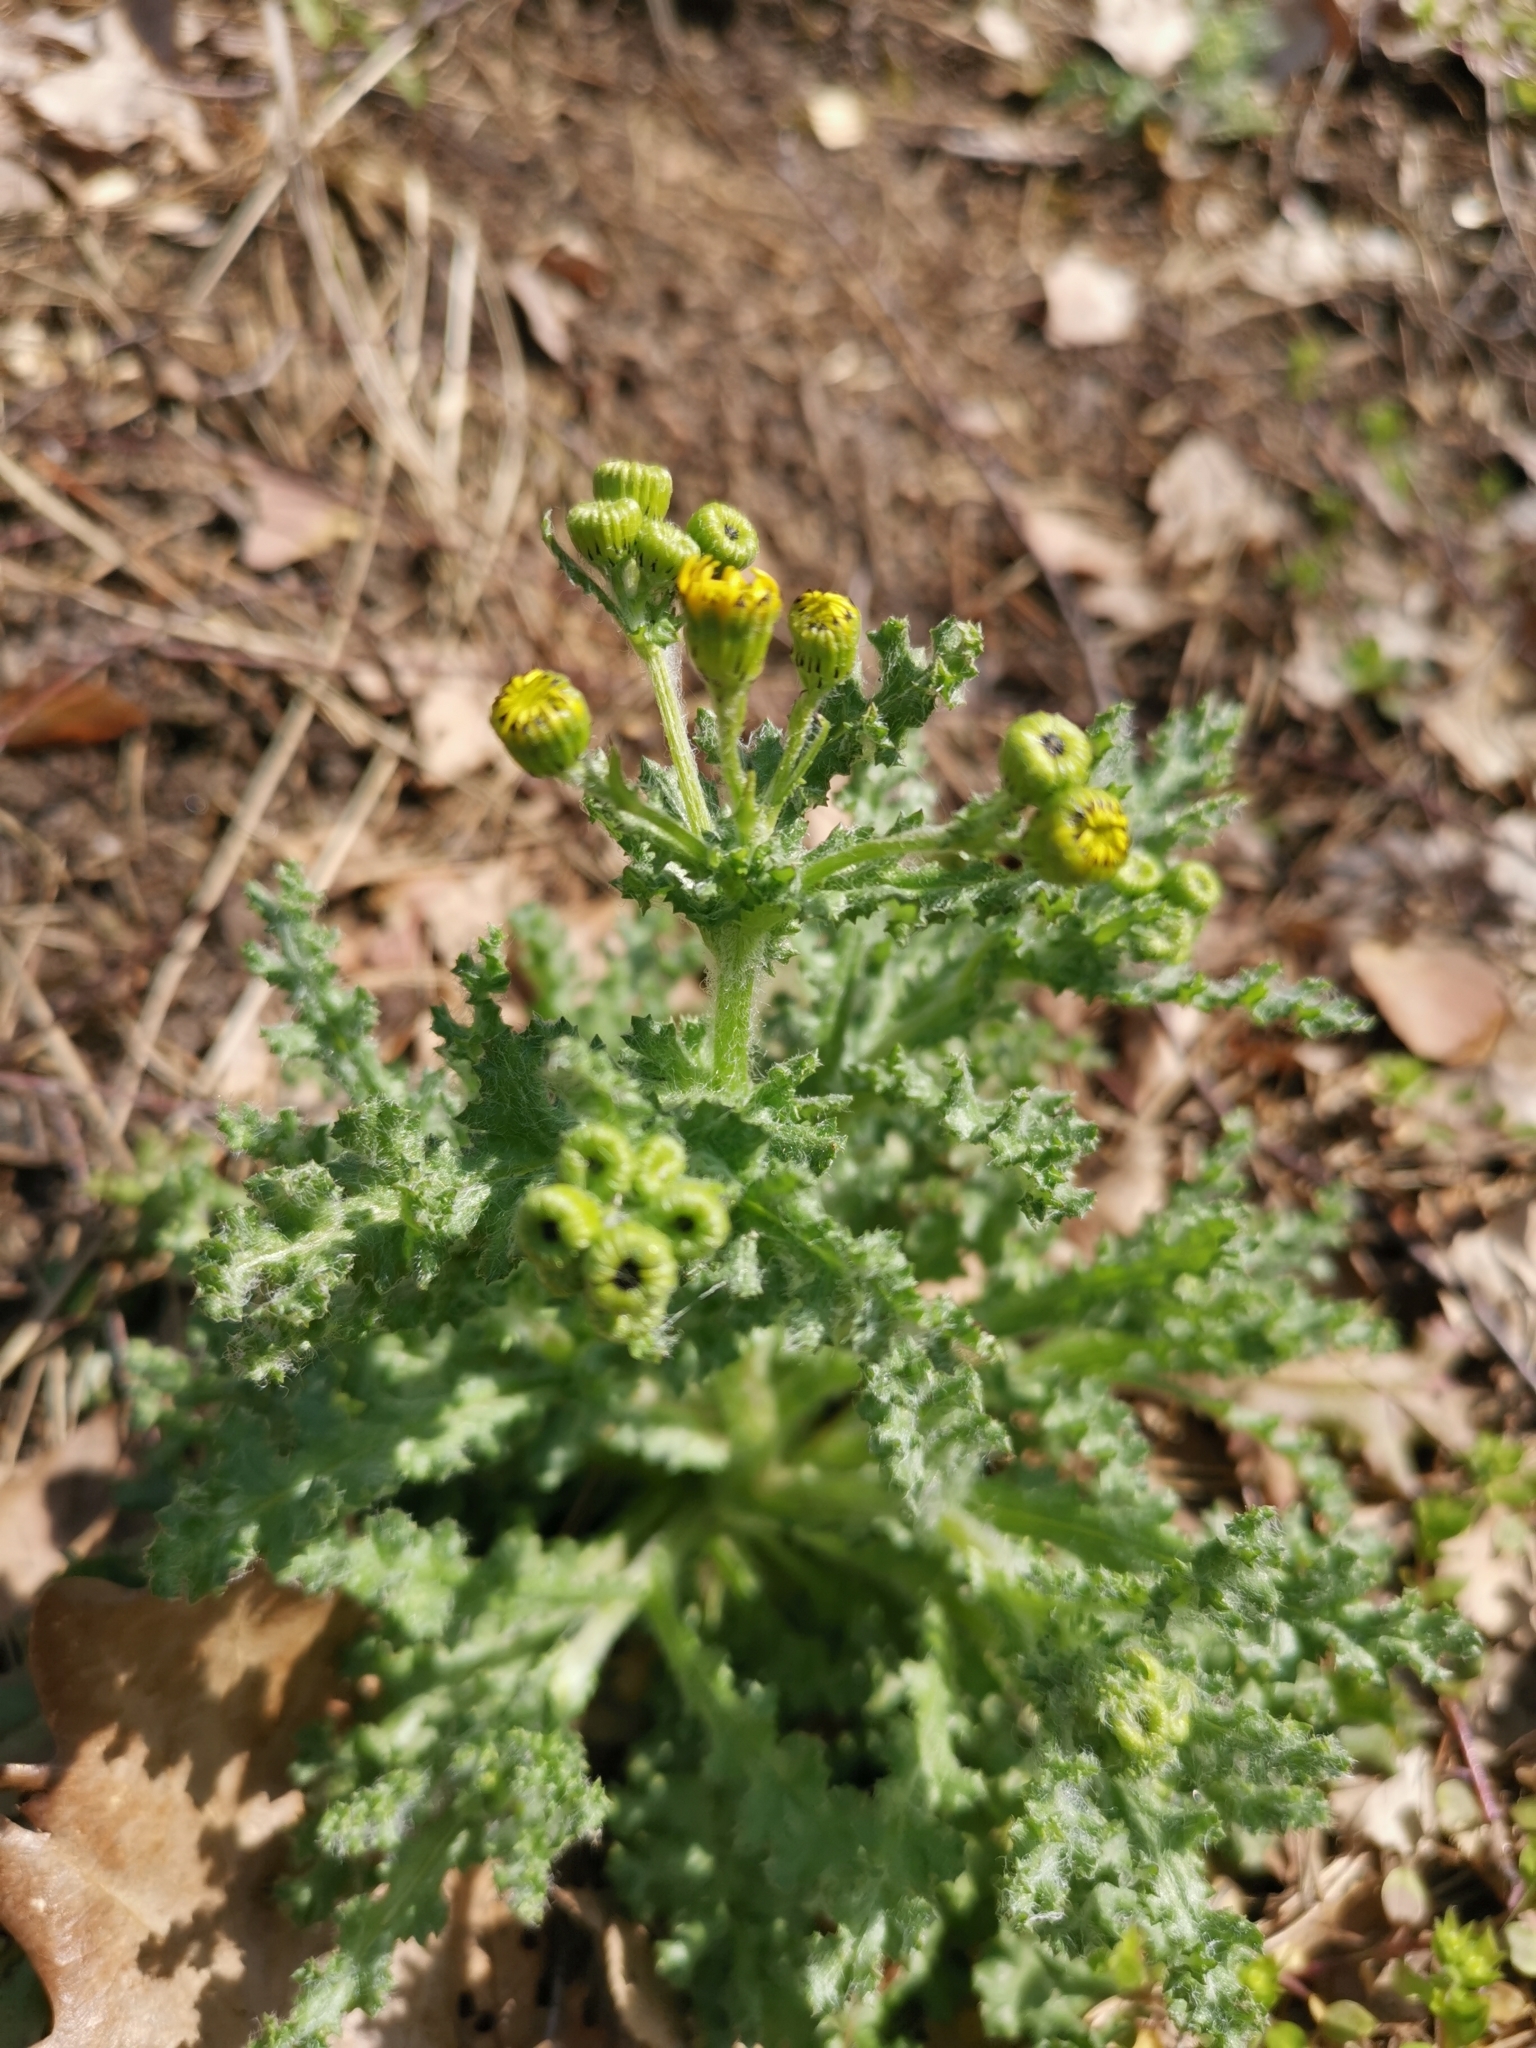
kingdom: Plantae
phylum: Tracheophyta
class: Magnoliopsida
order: Asterales
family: Asteraceae
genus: Senecio
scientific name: Senecio vernalis
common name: Eastern groundsel
